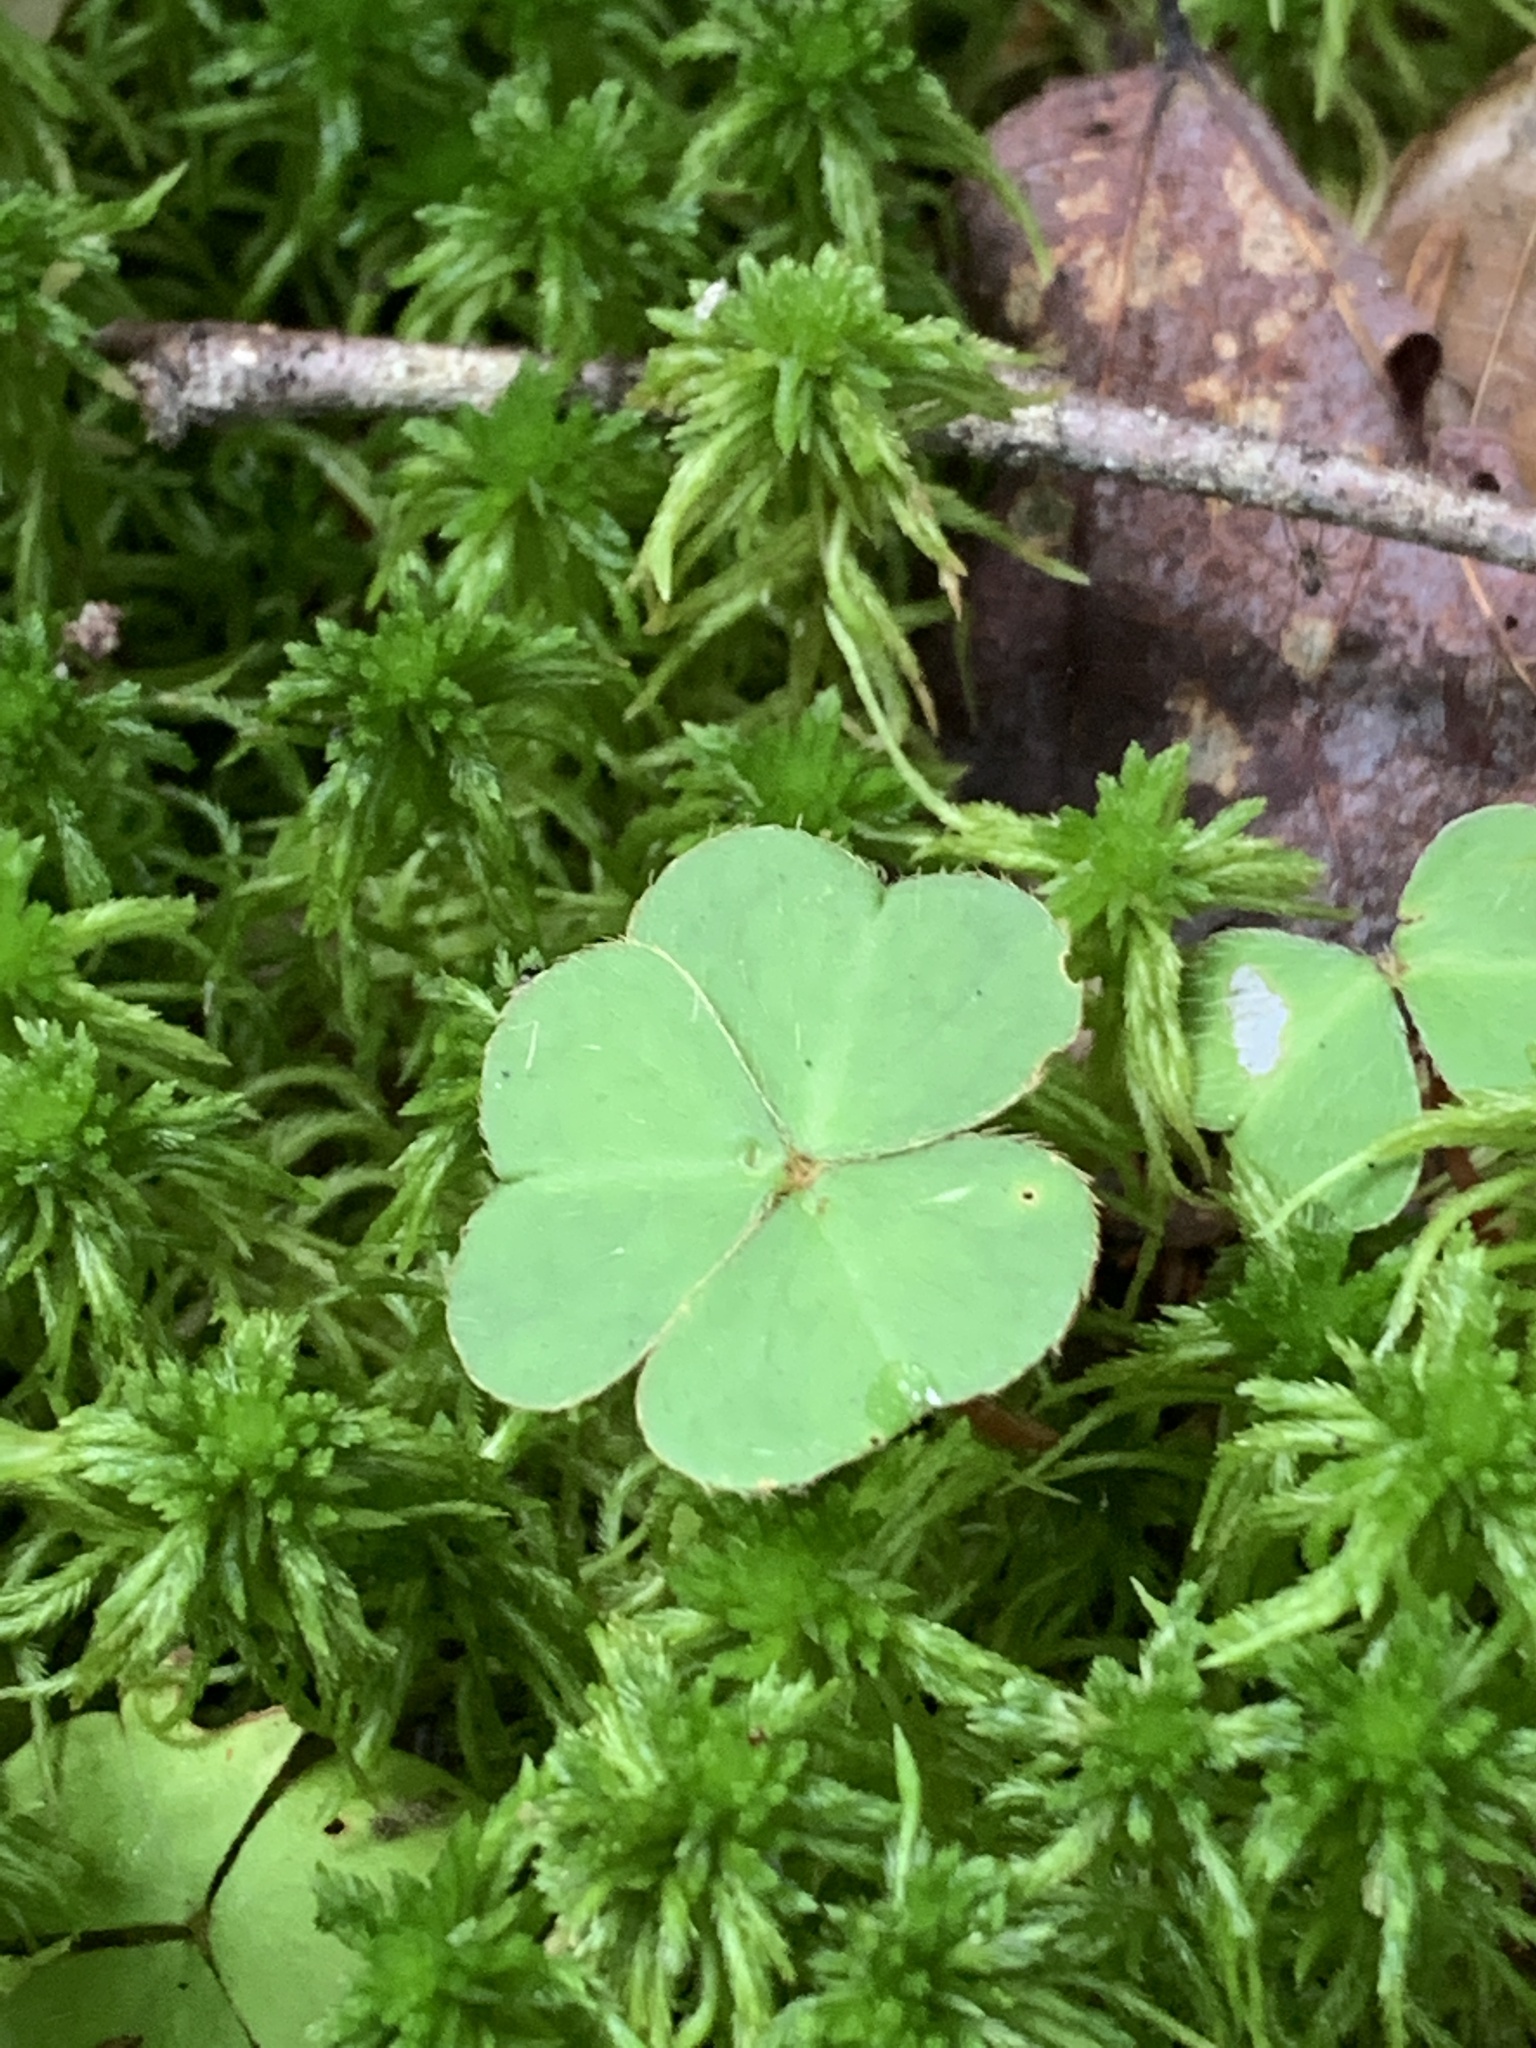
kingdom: Plantae
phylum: Tracheophyta
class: Magnoliopsida
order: Oxalidales
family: Oxalidaceae
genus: Oxalis
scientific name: Oxalis montana
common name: American wood-sorrel
